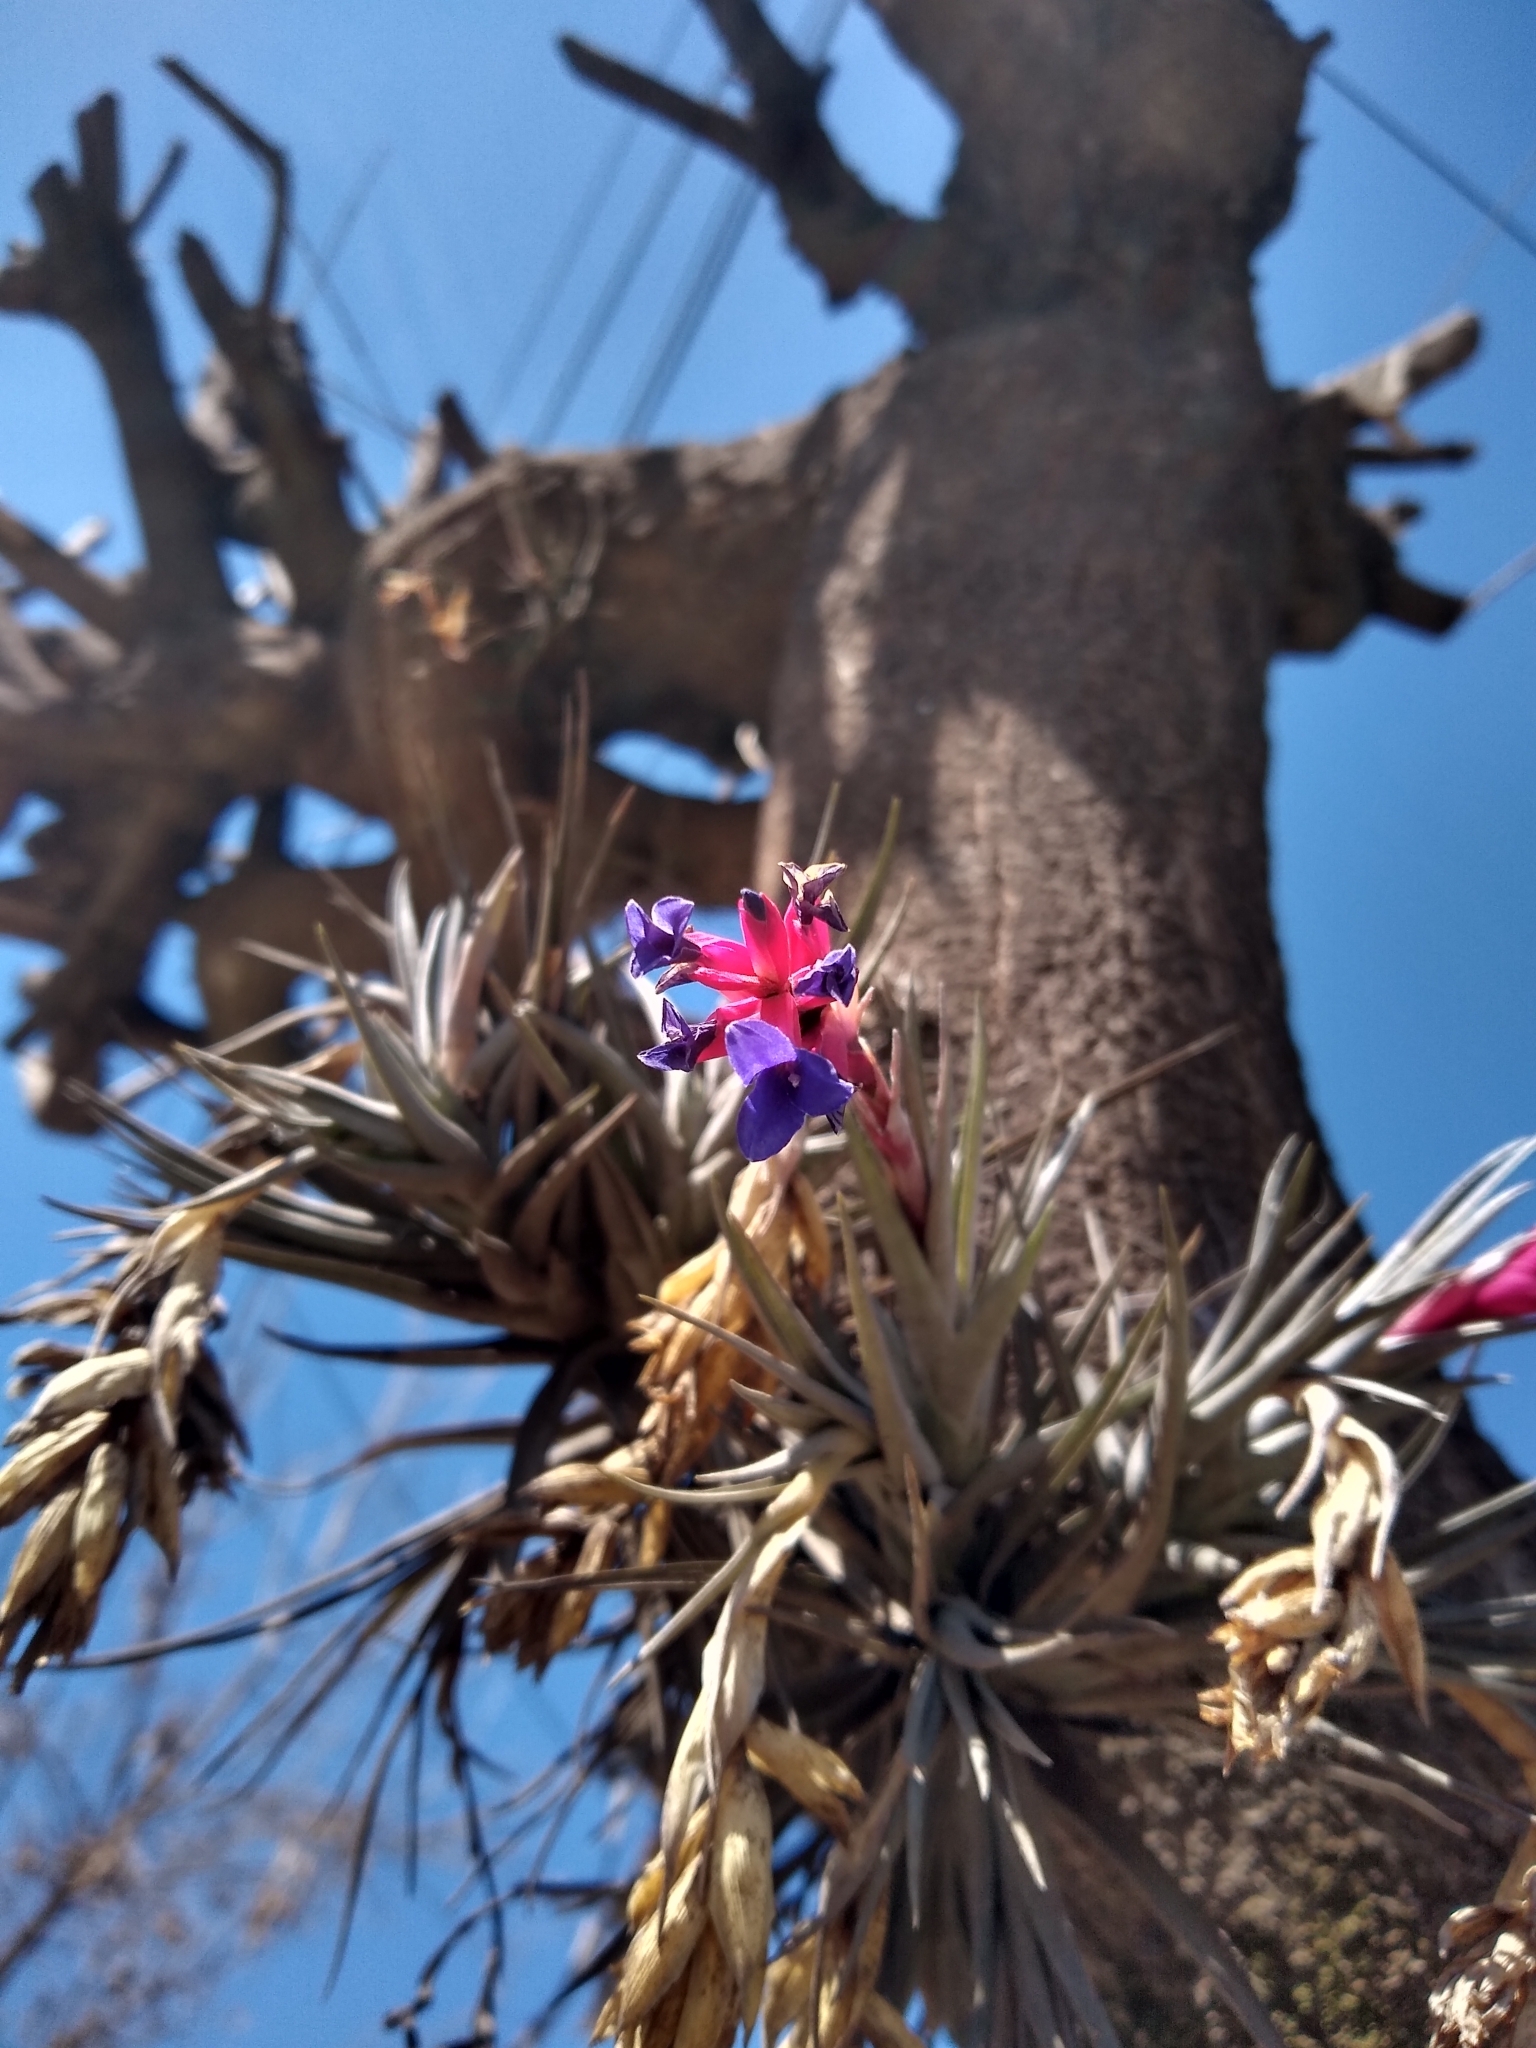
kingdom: Plantae
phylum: Tracheophyta
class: Liliopsida
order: Poales
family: Bromeliaceae
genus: Tillandsia
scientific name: Tillandsia aeranthos
